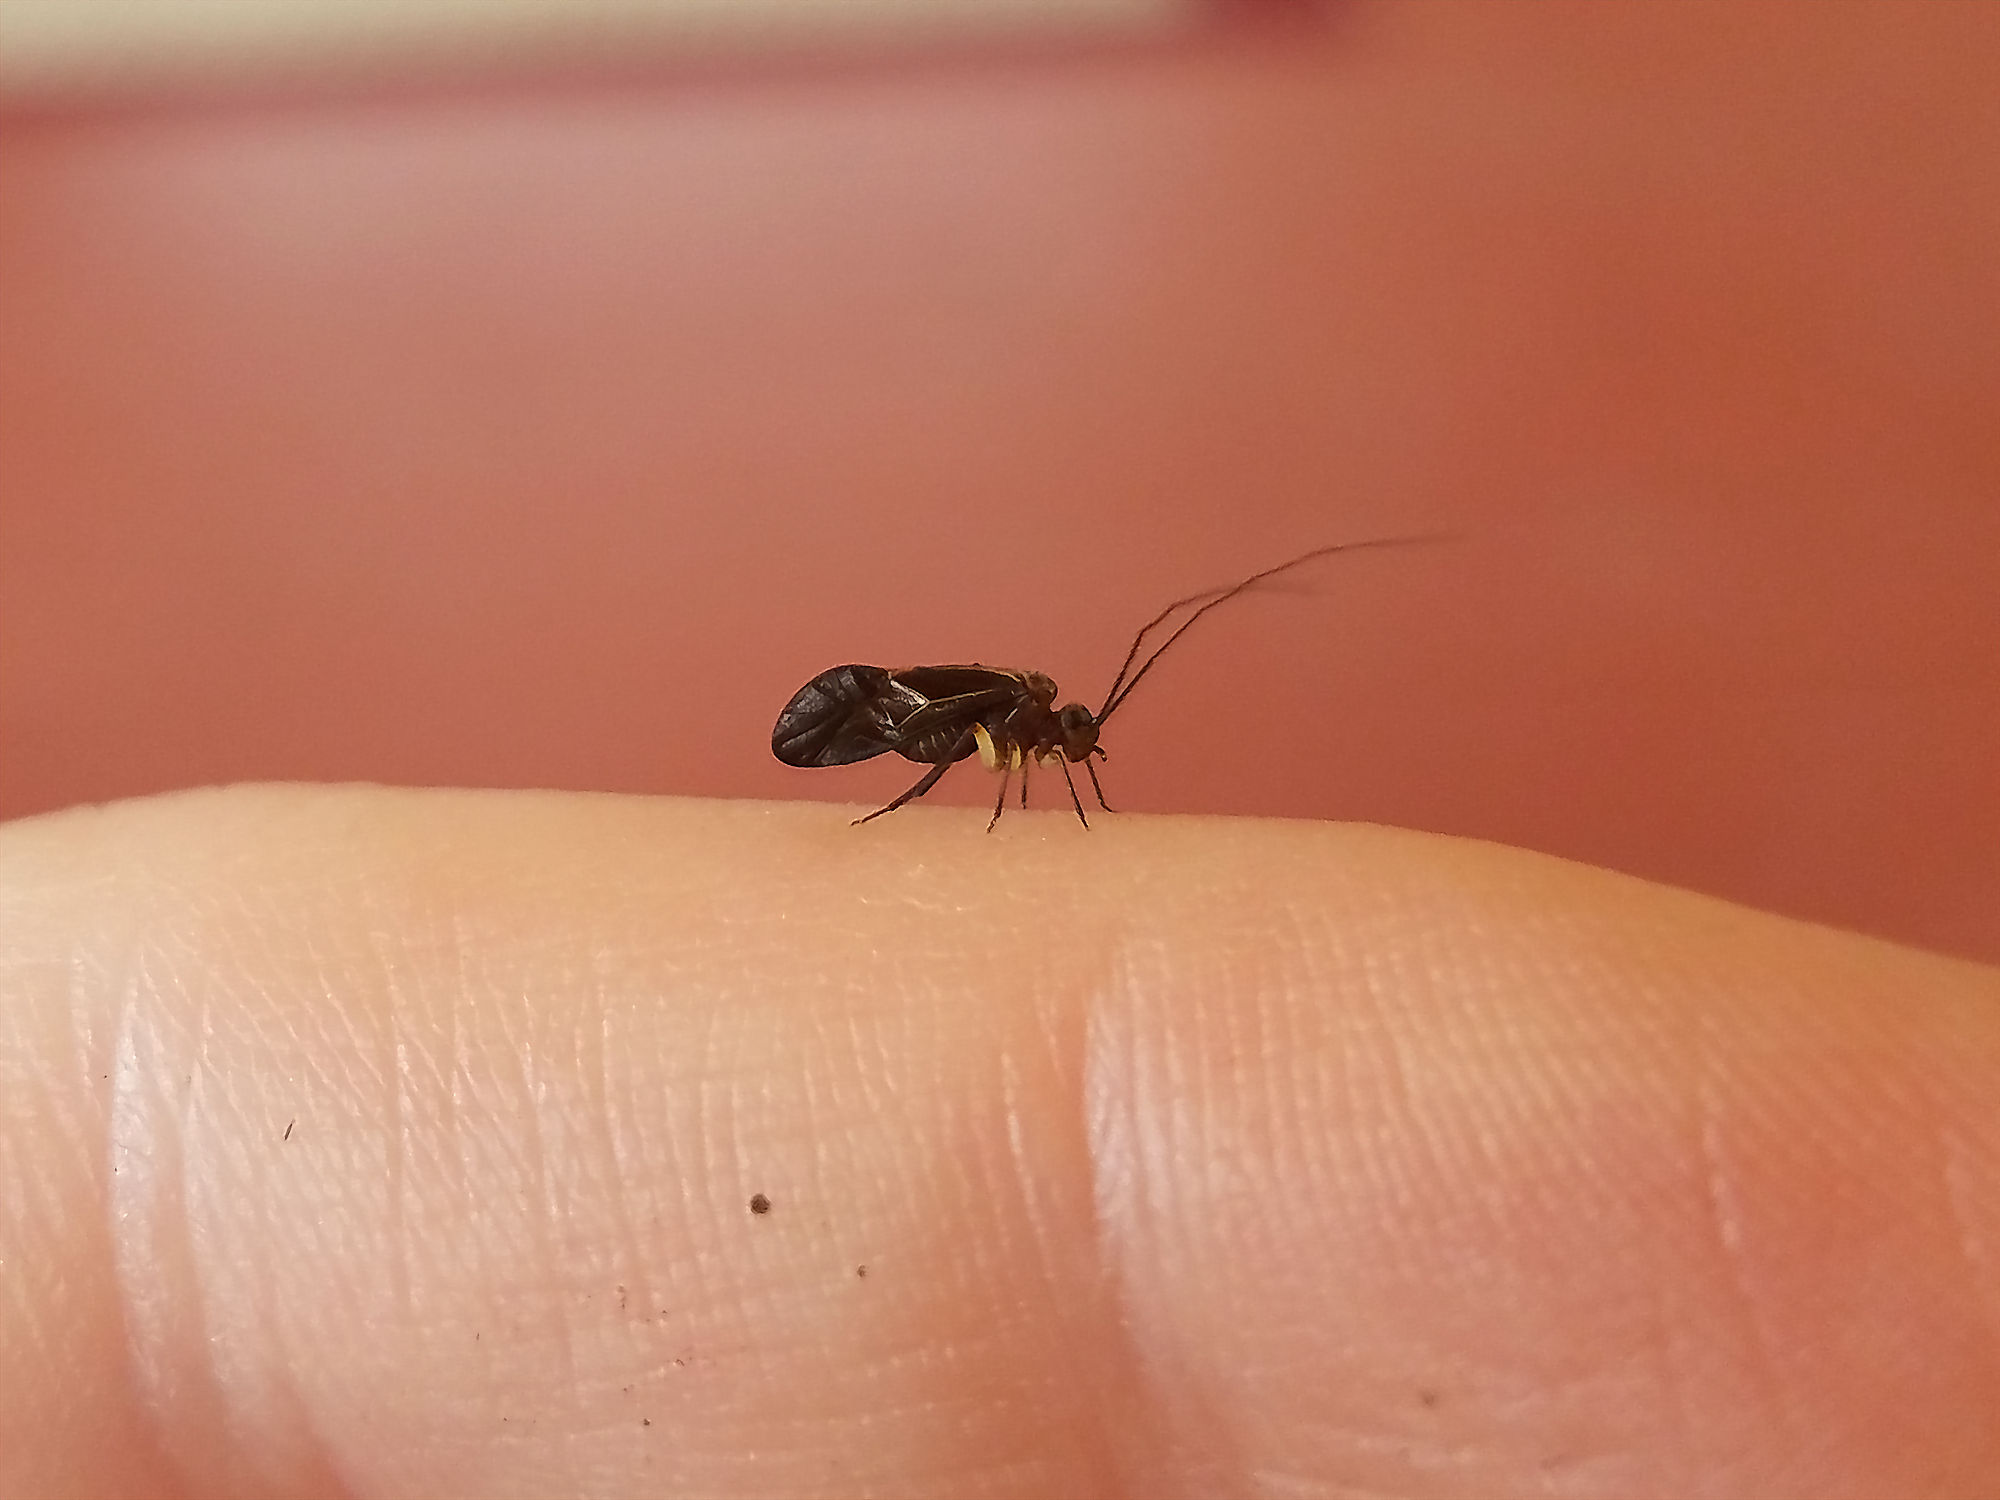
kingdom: Animalia
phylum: Arthropoda
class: Insecta
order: Psocodea
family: Psocidae
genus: Cerastipsocus
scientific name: Cerastipsocus venosus
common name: Tree cattle
